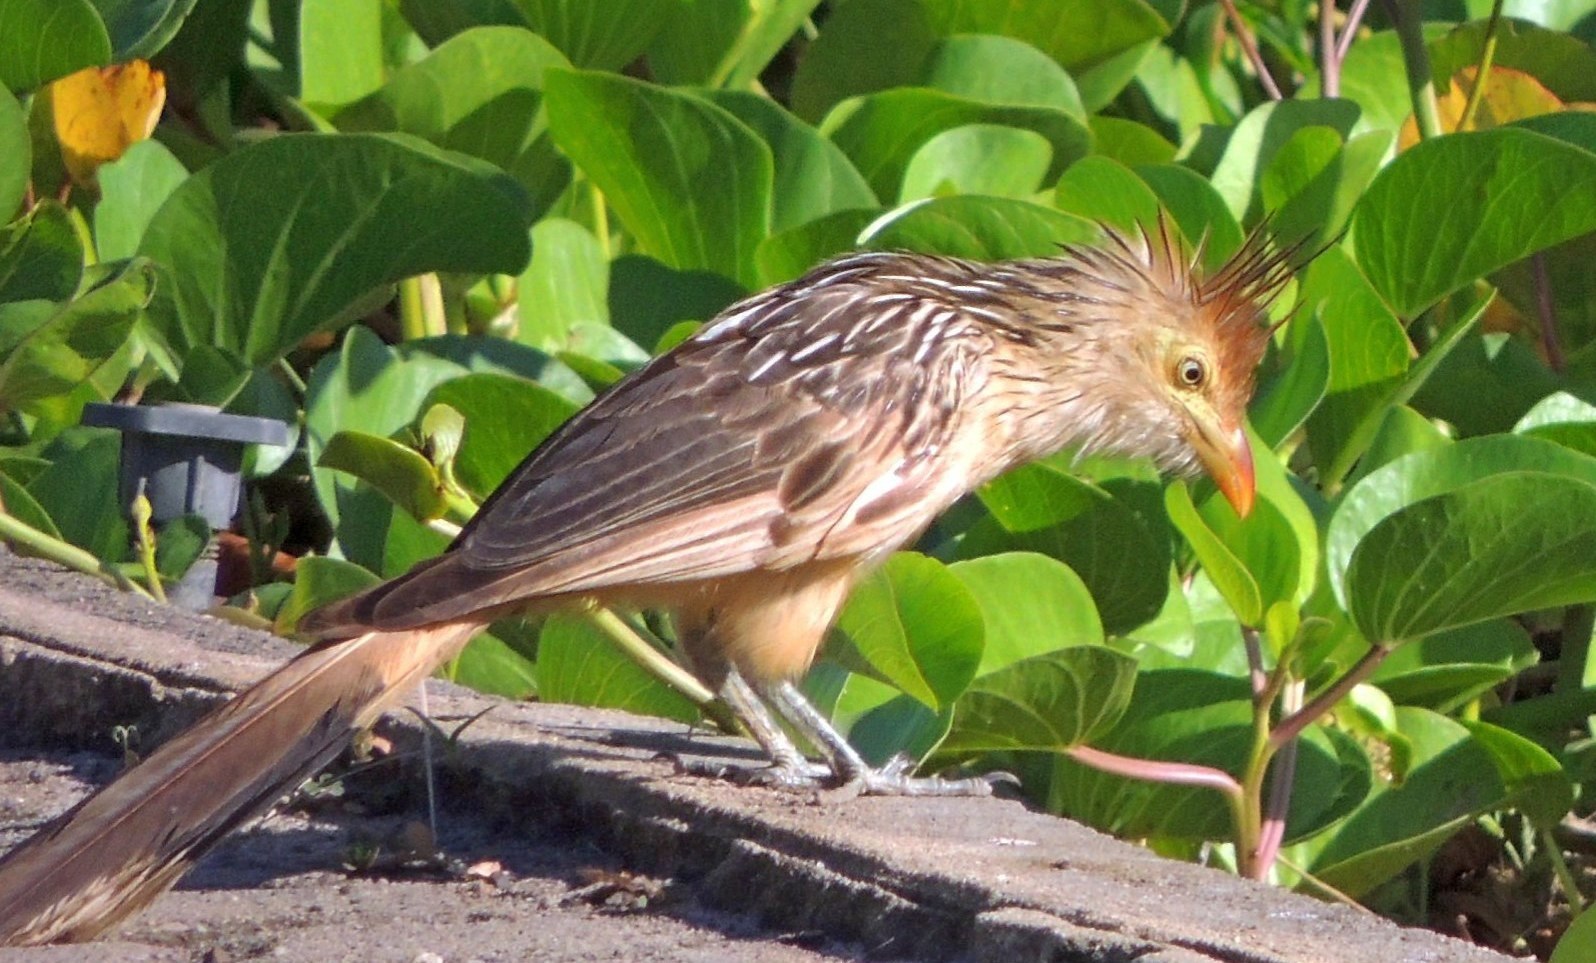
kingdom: Animalia
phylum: Chordata
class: Aves
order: Cuculiformes
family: Cuculidae
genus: Guira
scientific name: Guira guira
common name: Guira cuckoo
